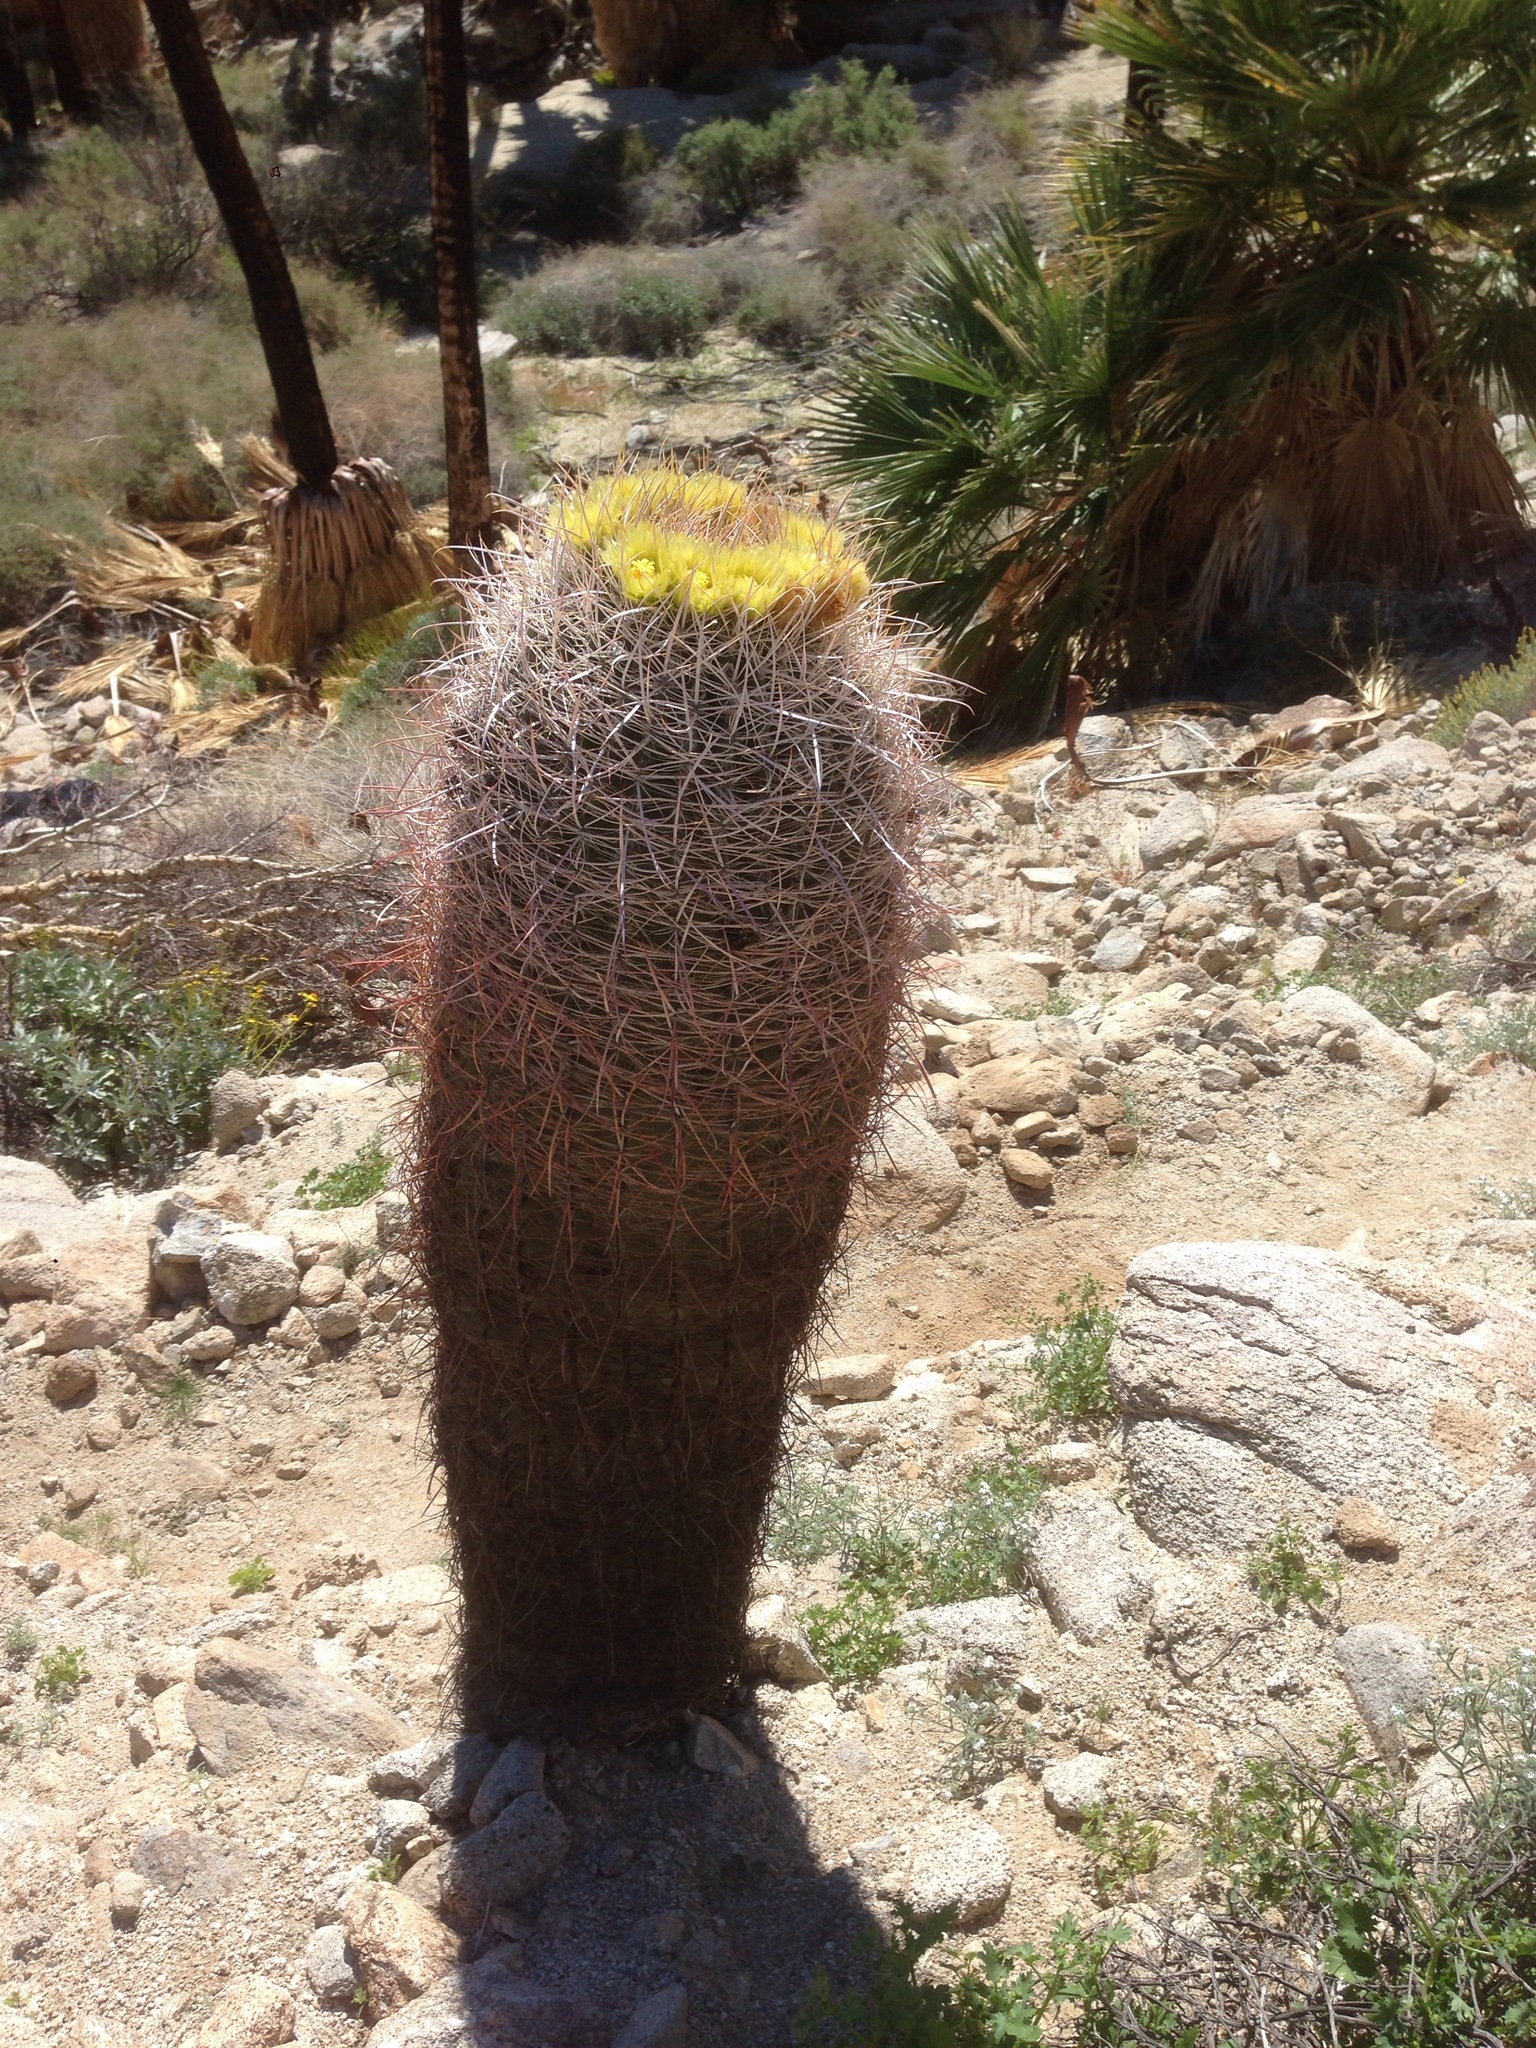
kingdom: Plantae
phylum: Tracheophyta
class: Magnoliopsida
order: Caryophyllales
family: Cactaceae
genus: Ferocactus
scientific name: Ferocactus cylindraceus
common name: California barrel cactus
